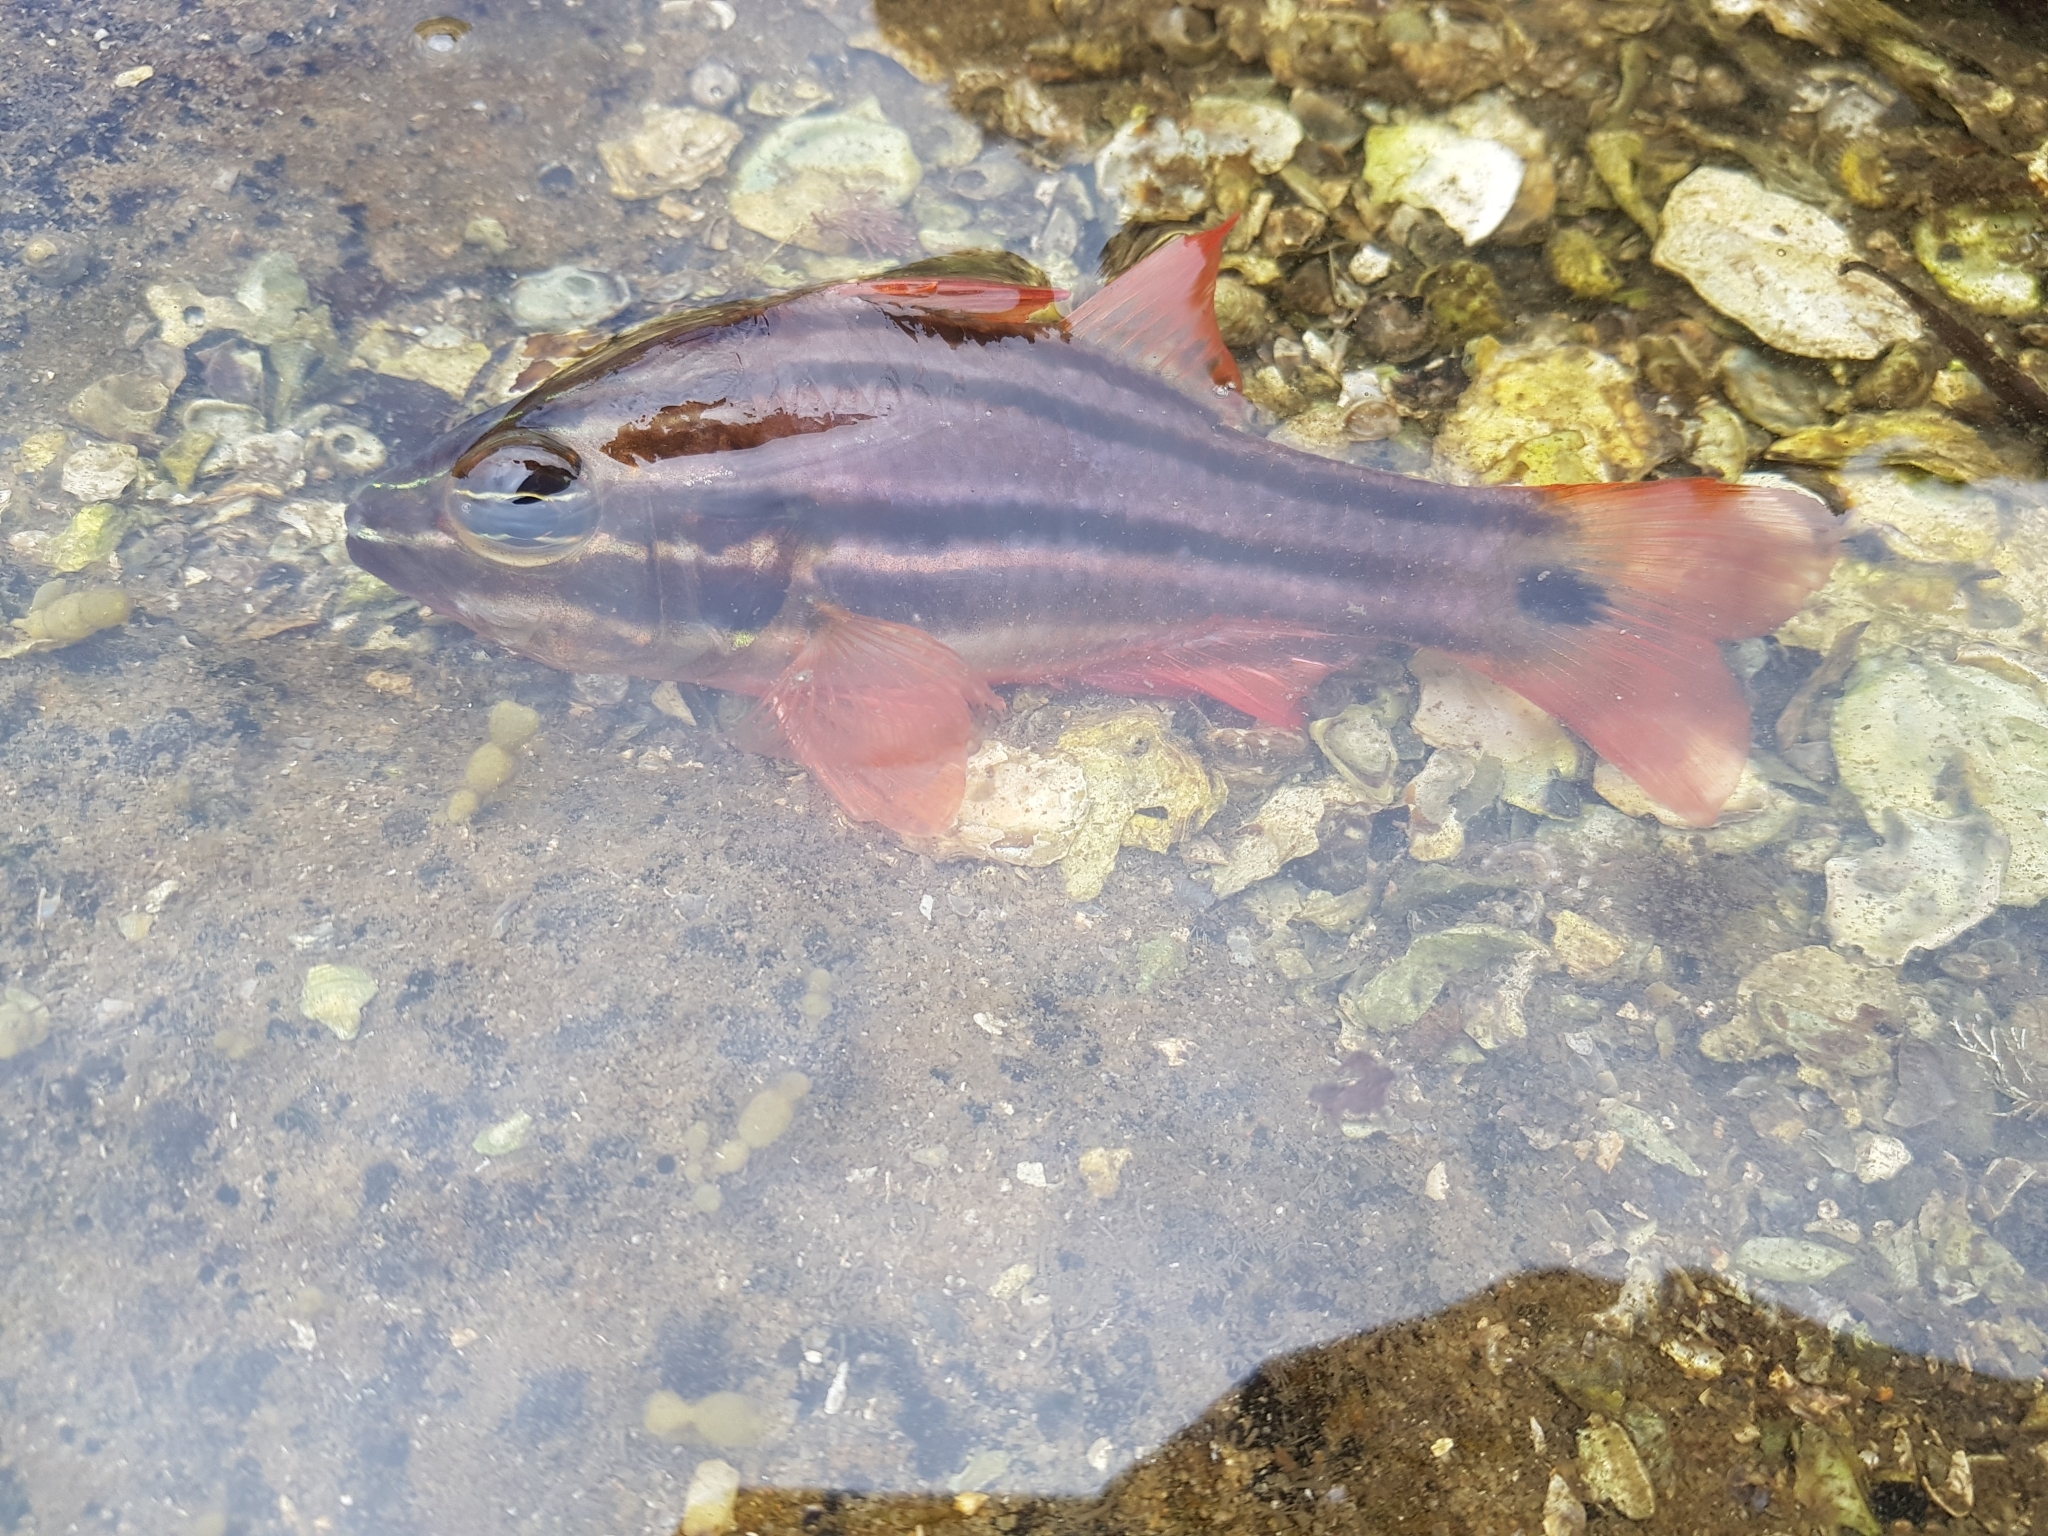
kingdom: Animalia
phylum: Chordata
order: Perciformes
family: Apogonidae
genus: Ostorhinchus
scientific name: Ostorhinchus limenus
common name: Four-banded soldierfish
